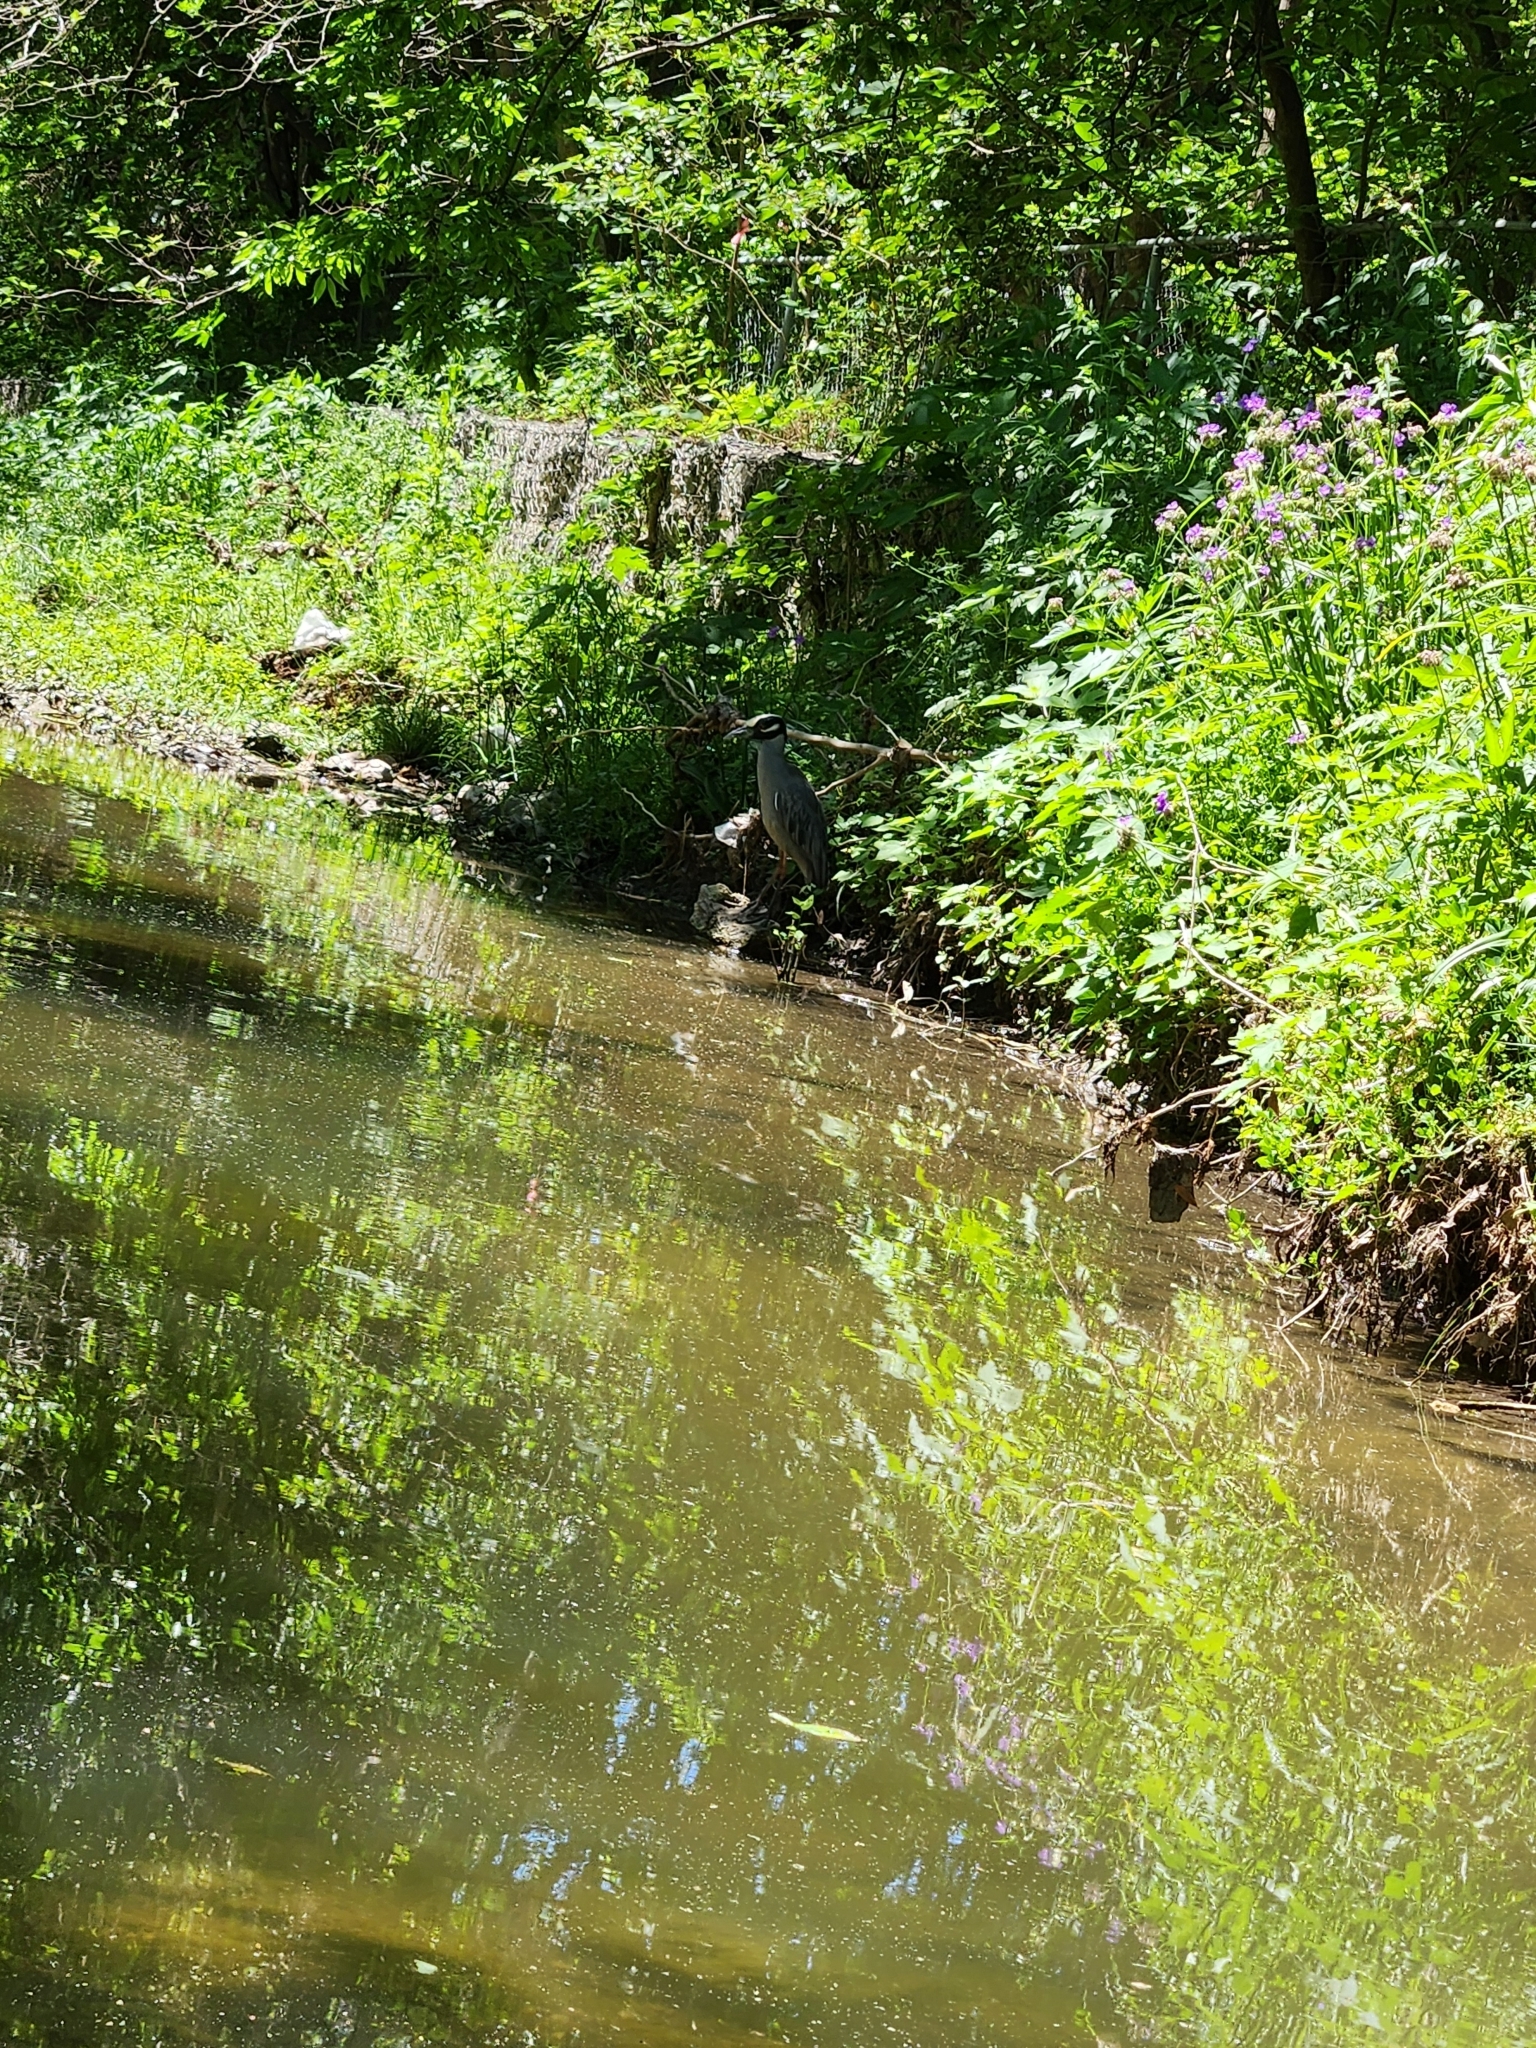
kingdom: Animalia
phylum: Chordata
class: Aves
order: Pelecaniformes
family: Ardeidae
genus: Nyctanassa
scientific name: Nyctanassa violacea
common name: Yellow-crowned night heron
